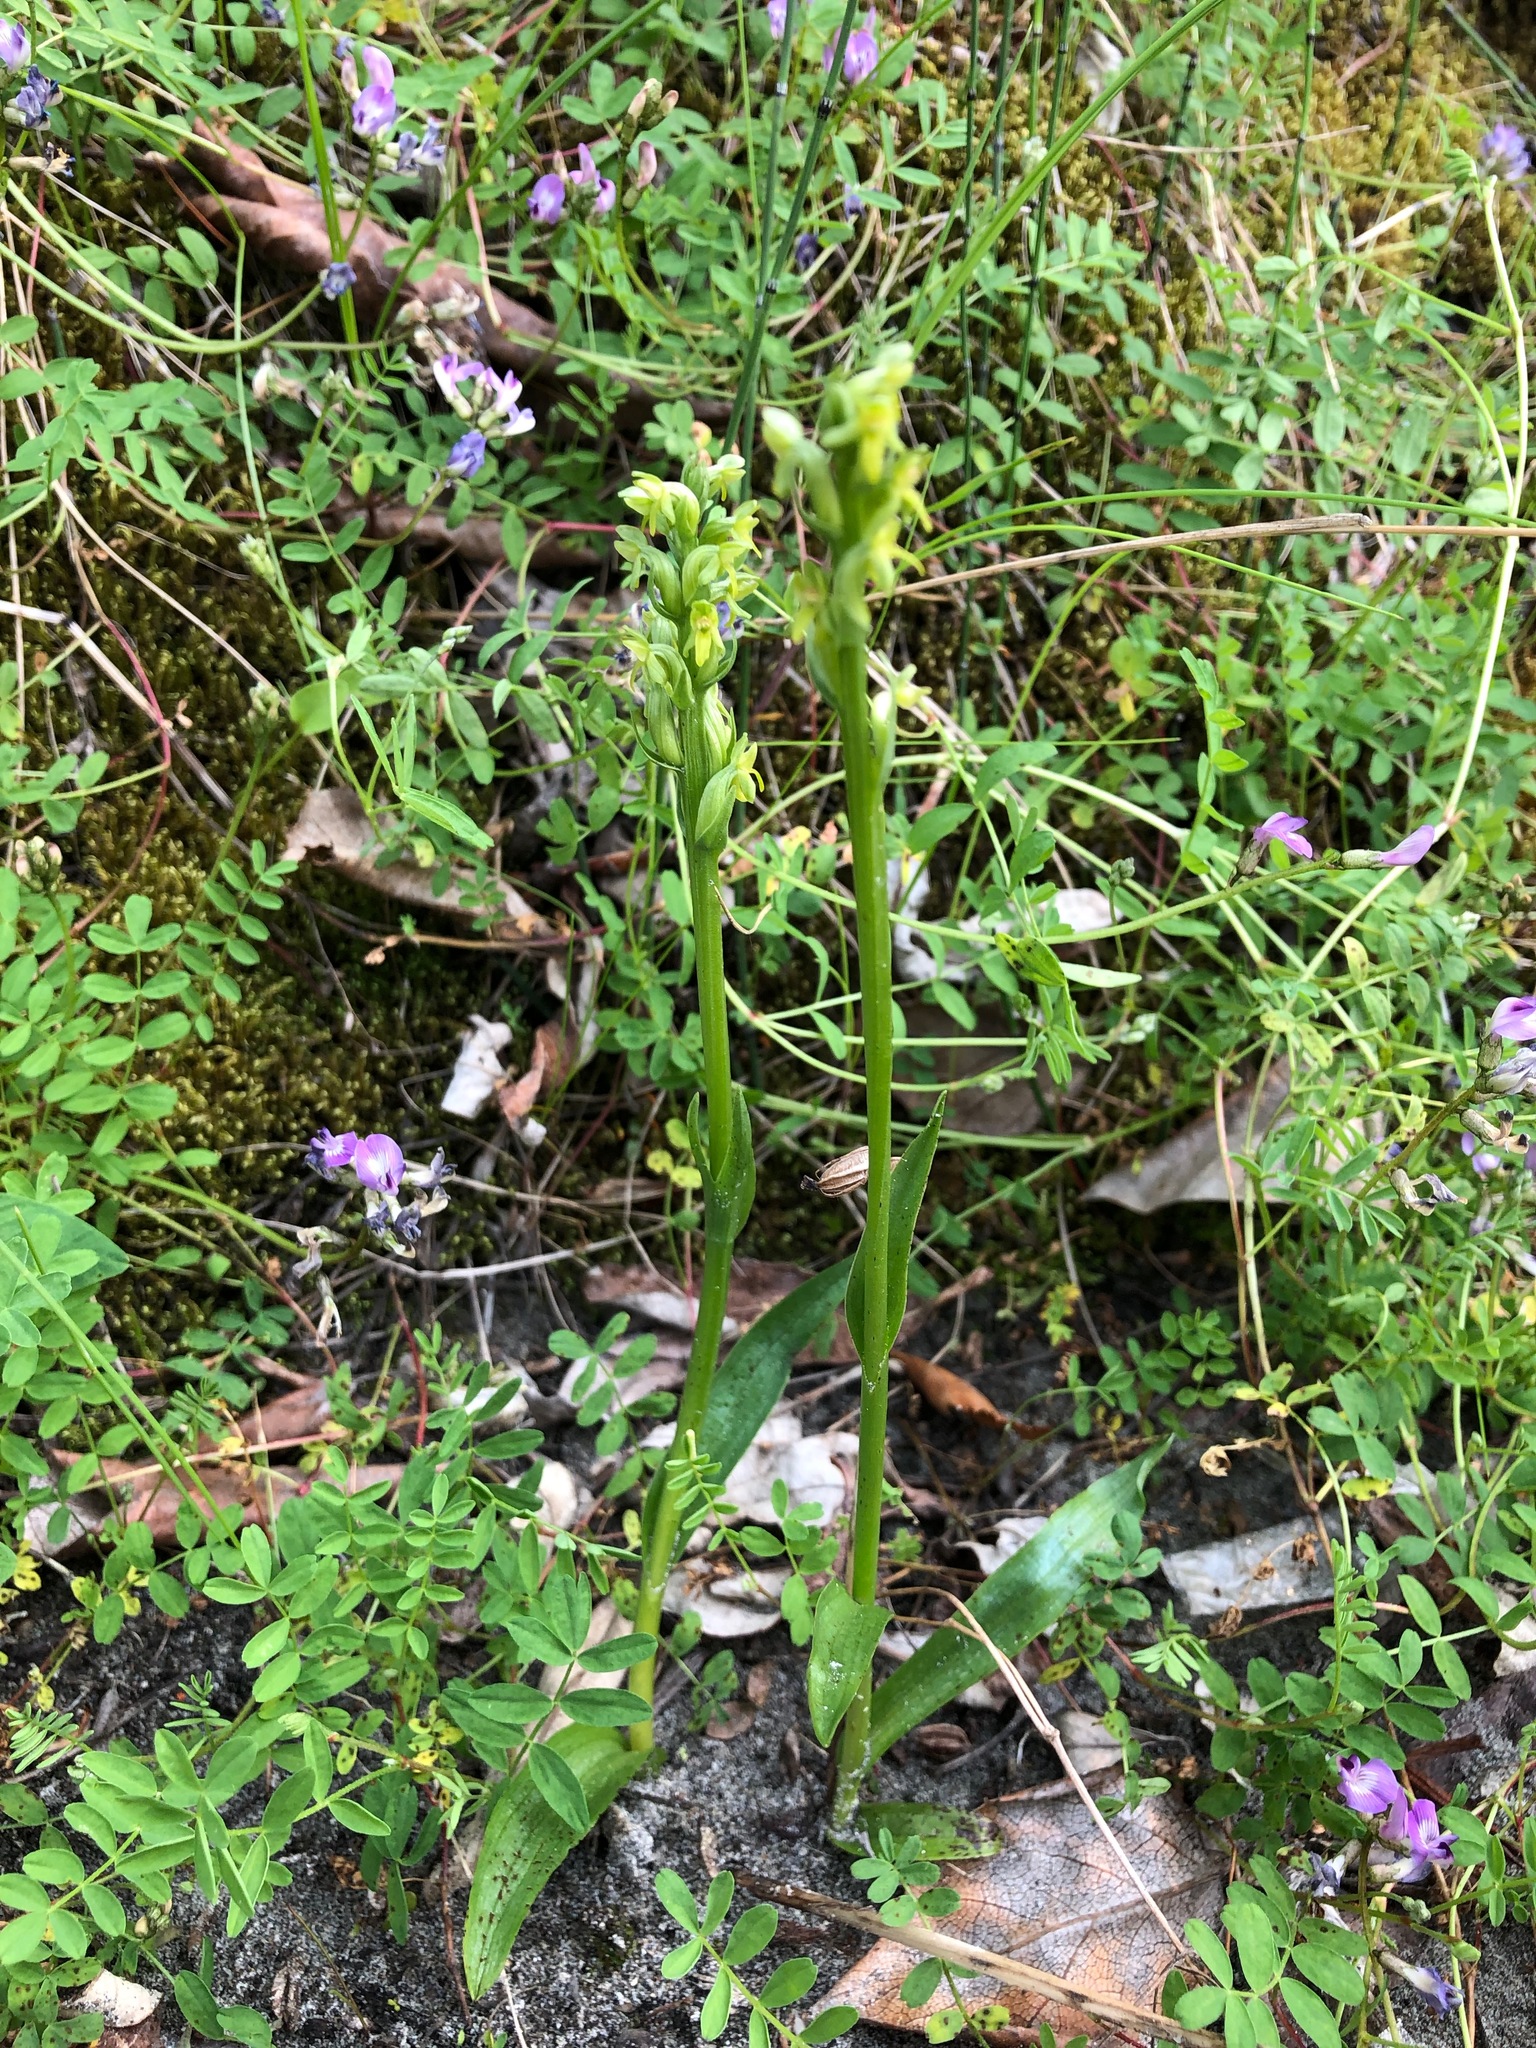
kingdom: Plantae
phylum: Tracheophyta
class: Liliopsida
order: Asparagales
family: Orchidaceae
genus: Platanthera
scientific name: Platanthera aquilonis
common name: Northern green orchid
